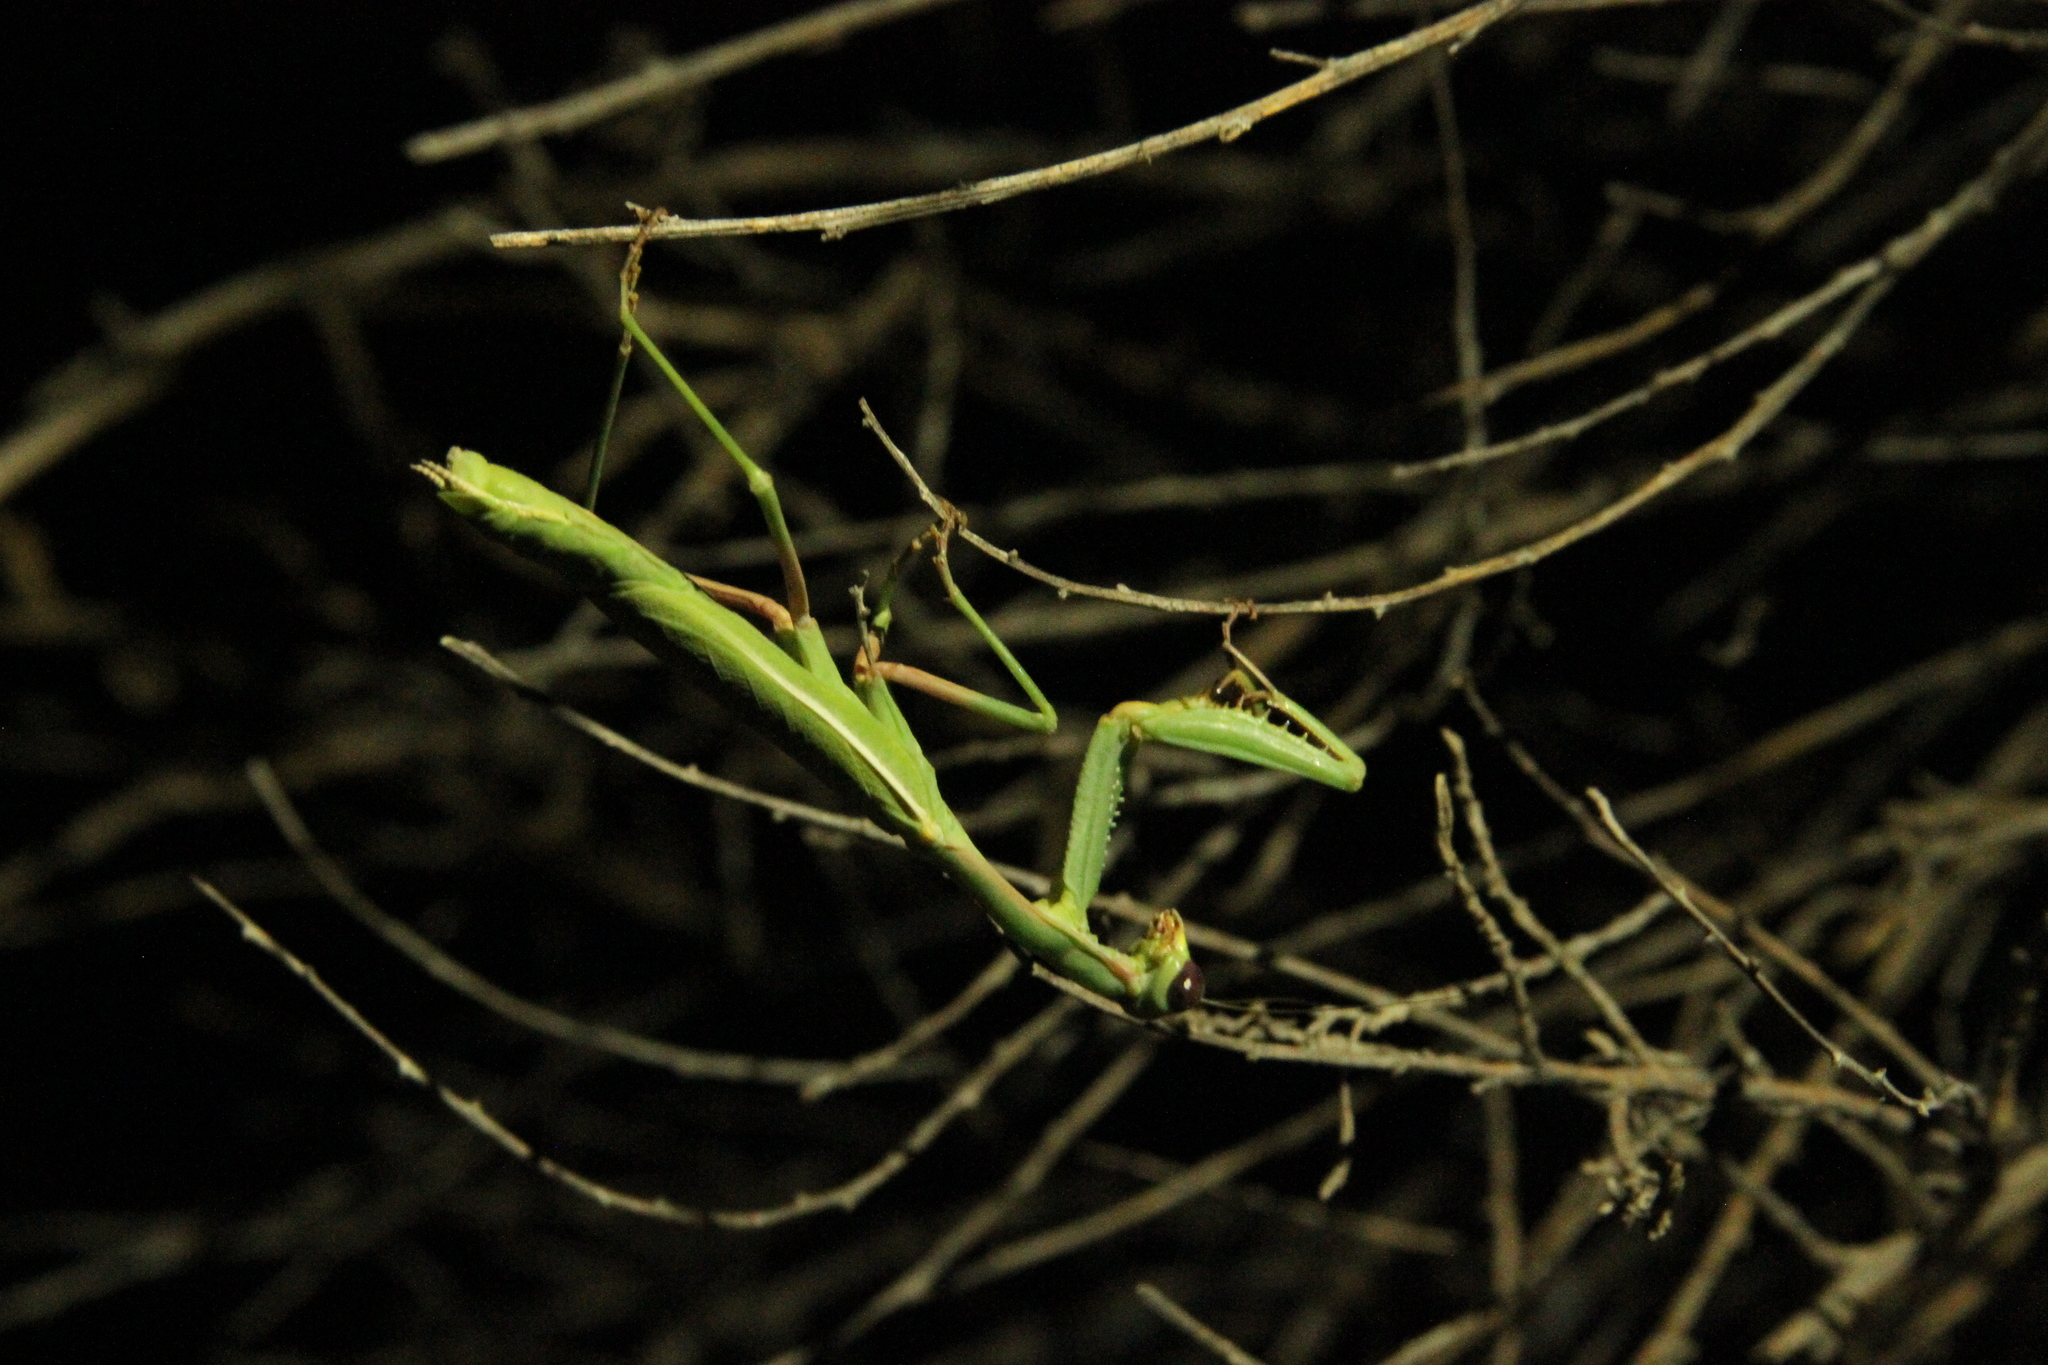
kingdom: Animalia
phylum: Arthropoda
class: Insecta
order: Mantodea
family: Eremiaphilidae
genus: Iris
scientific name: Iris oratoria
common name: Mediterranean mantis
